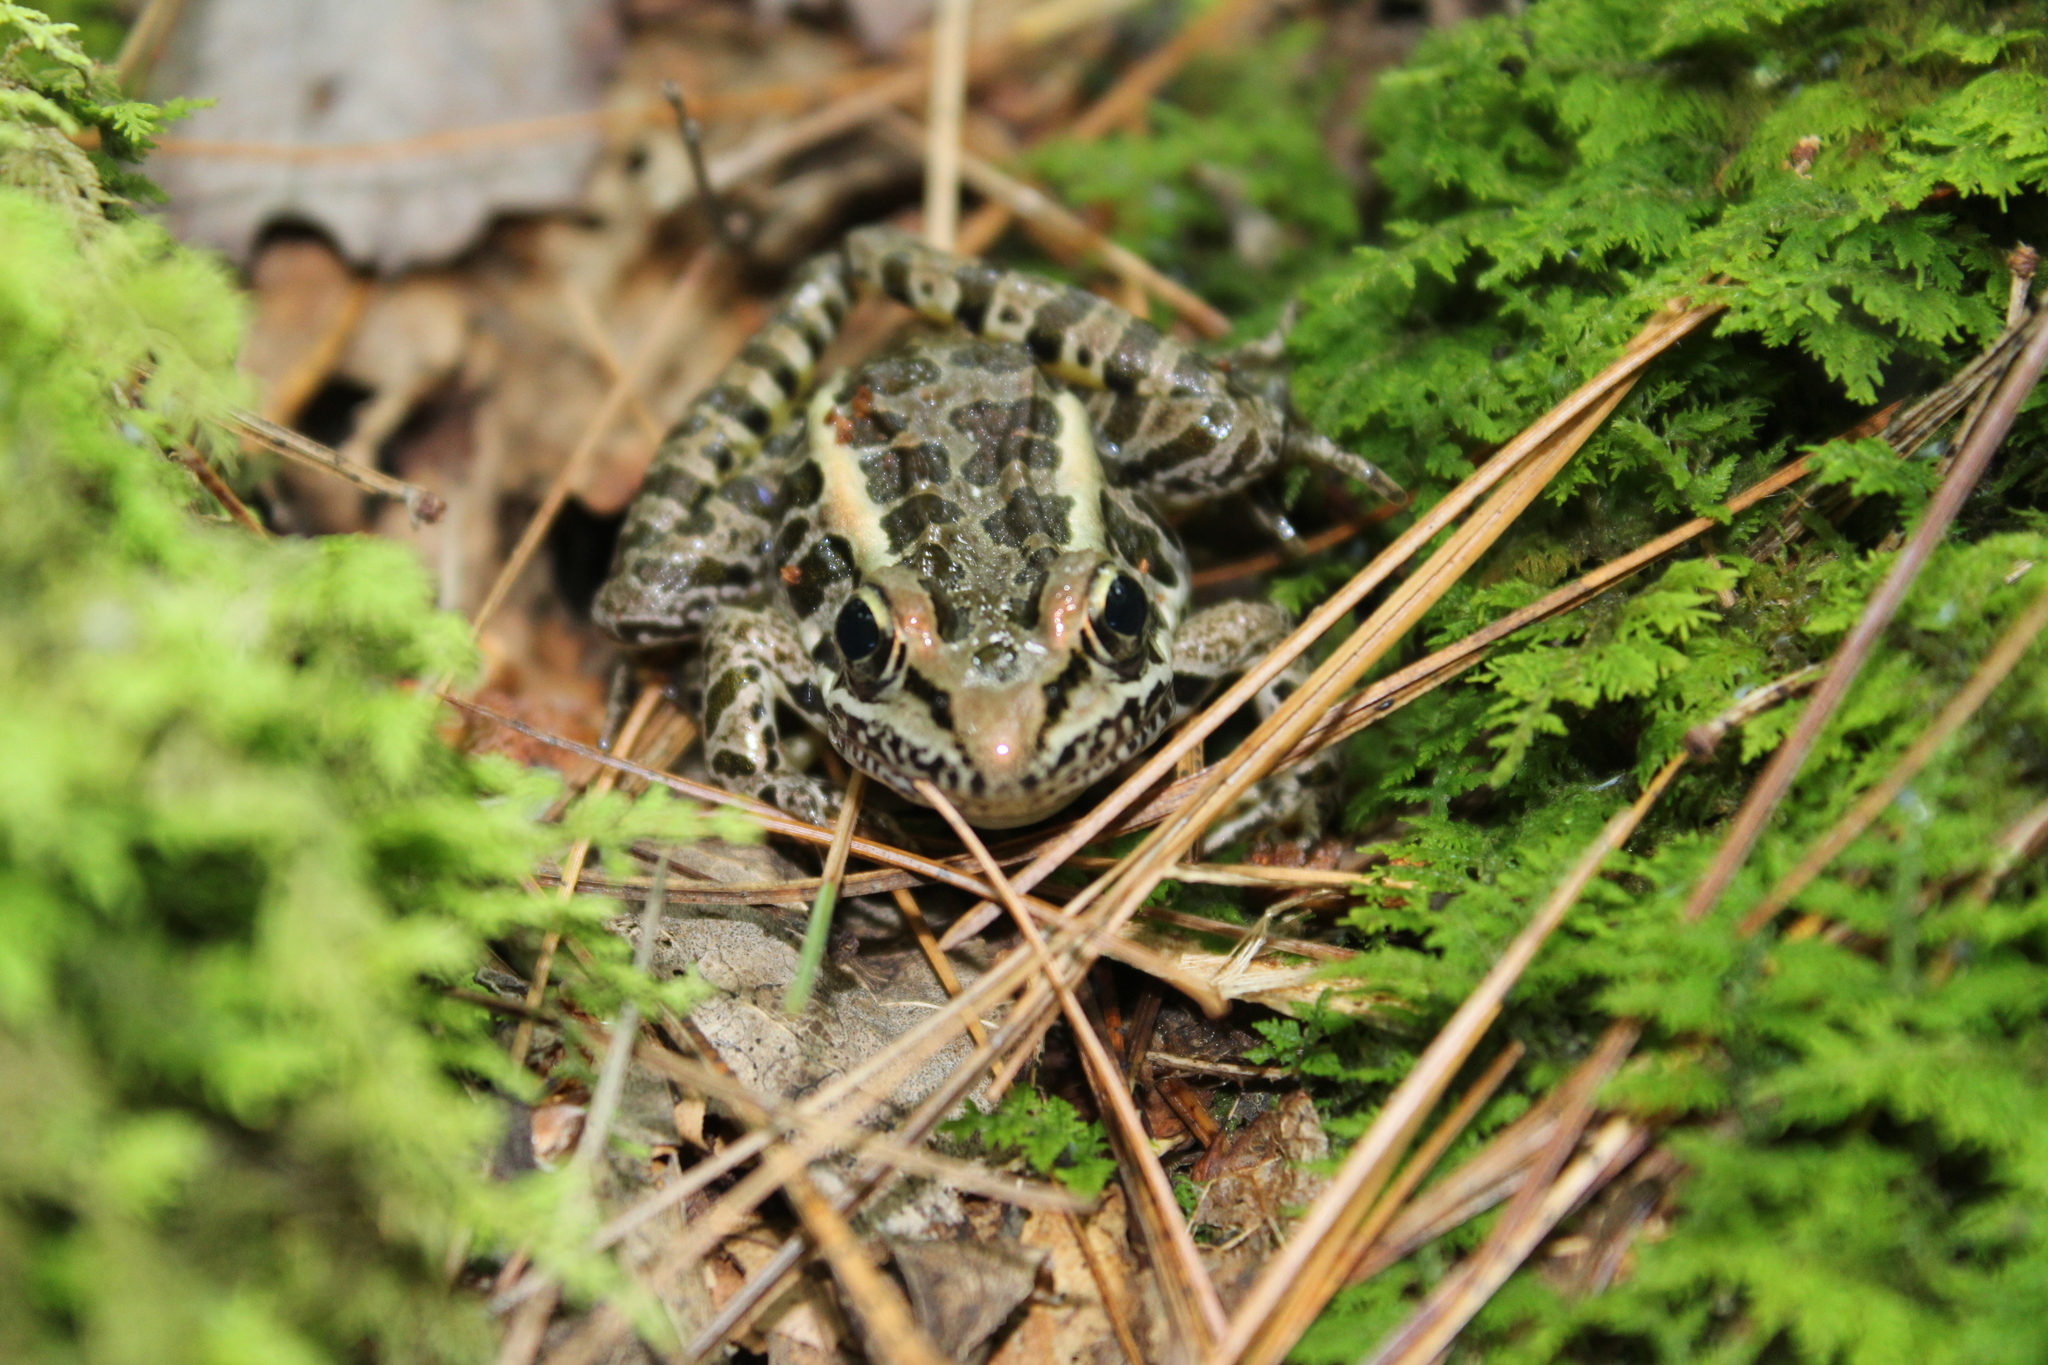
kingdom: Animalia
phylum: Chordata
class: Amphibia
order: Anura
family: Ranidae
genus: Lithobates
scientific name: Lithobates palustris
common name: Pickerel frog
